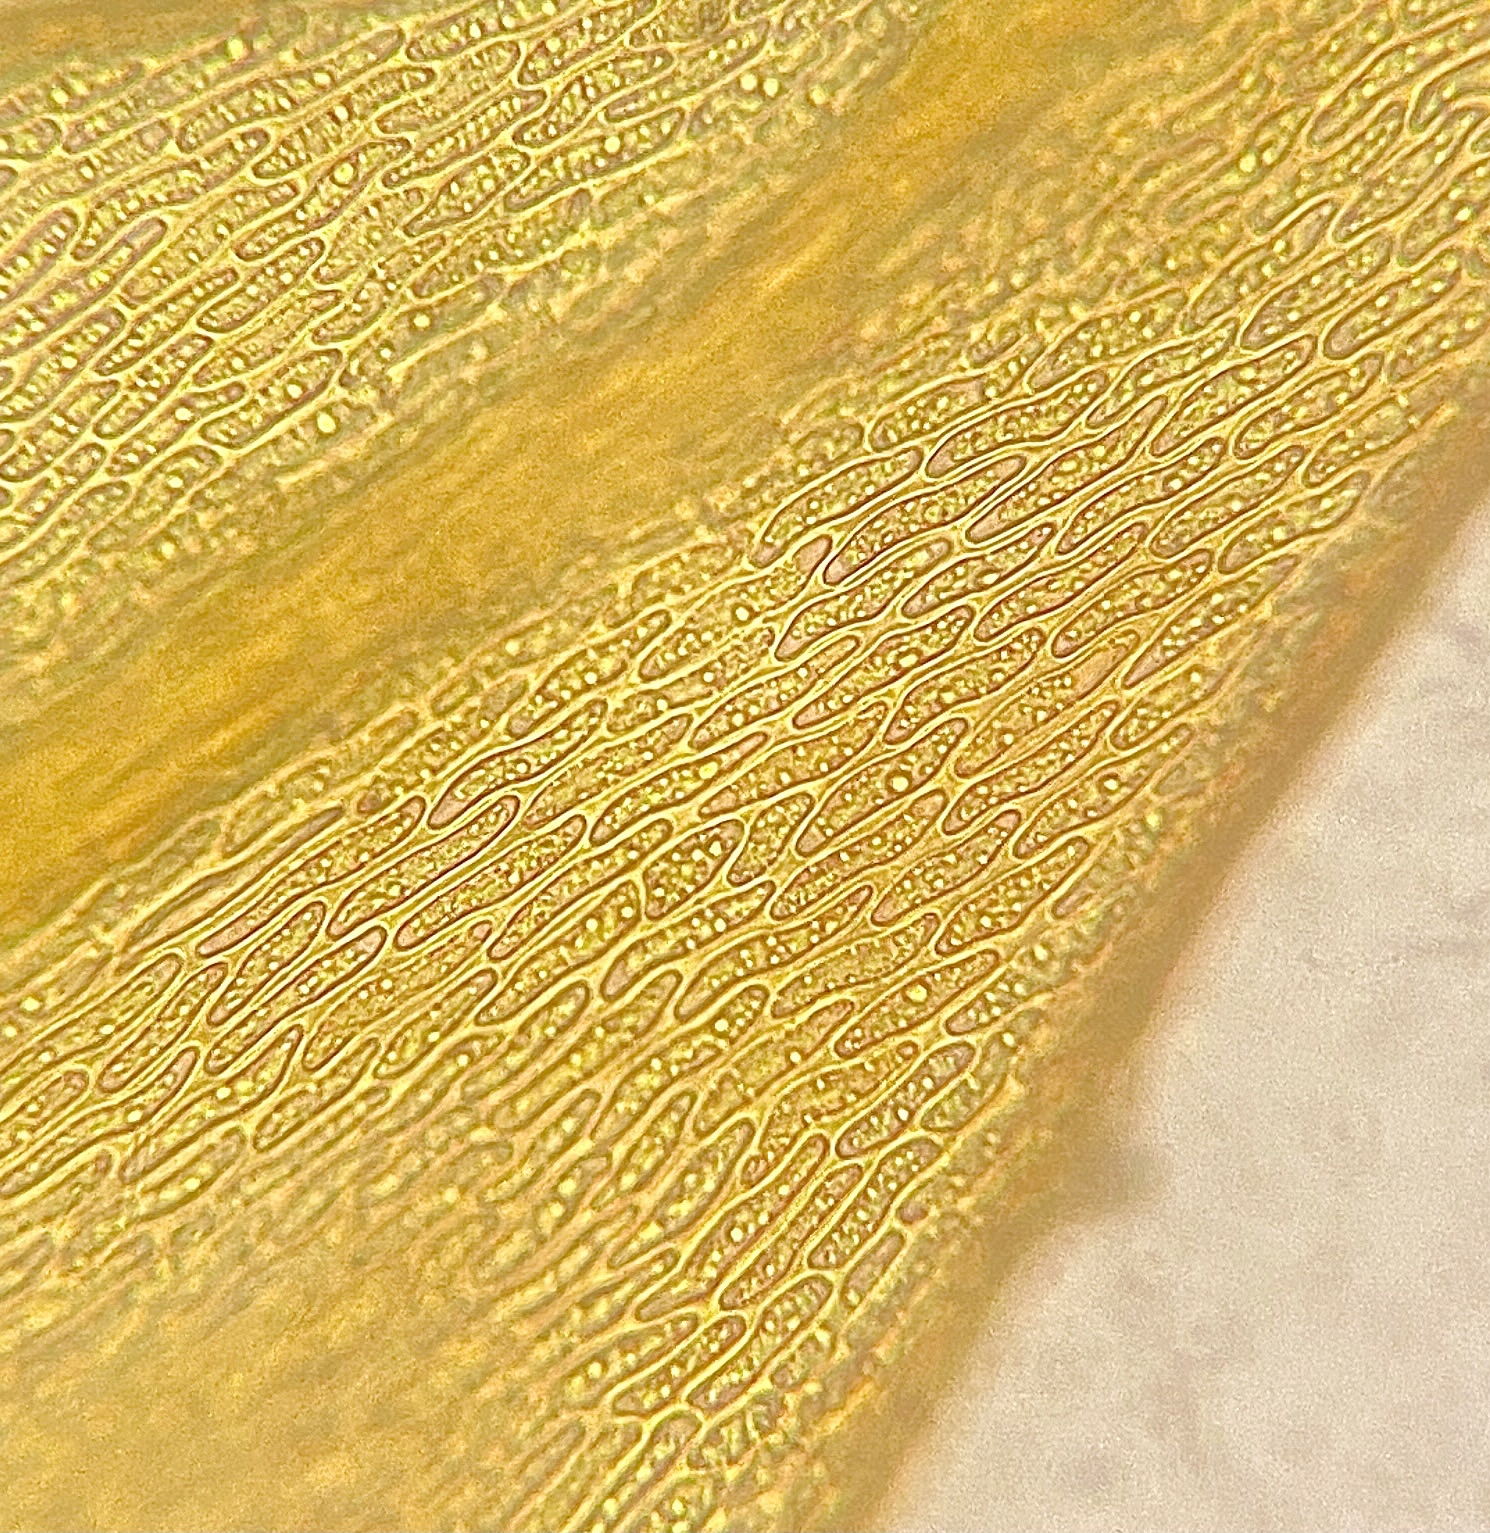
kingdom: Plantae
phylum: Bryophyta
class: Bryopsida
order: Hypnales
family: Helodiaceae
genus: Helodium
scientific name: Helodium paludosum
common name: Narrow-leaved wetland plume moss
